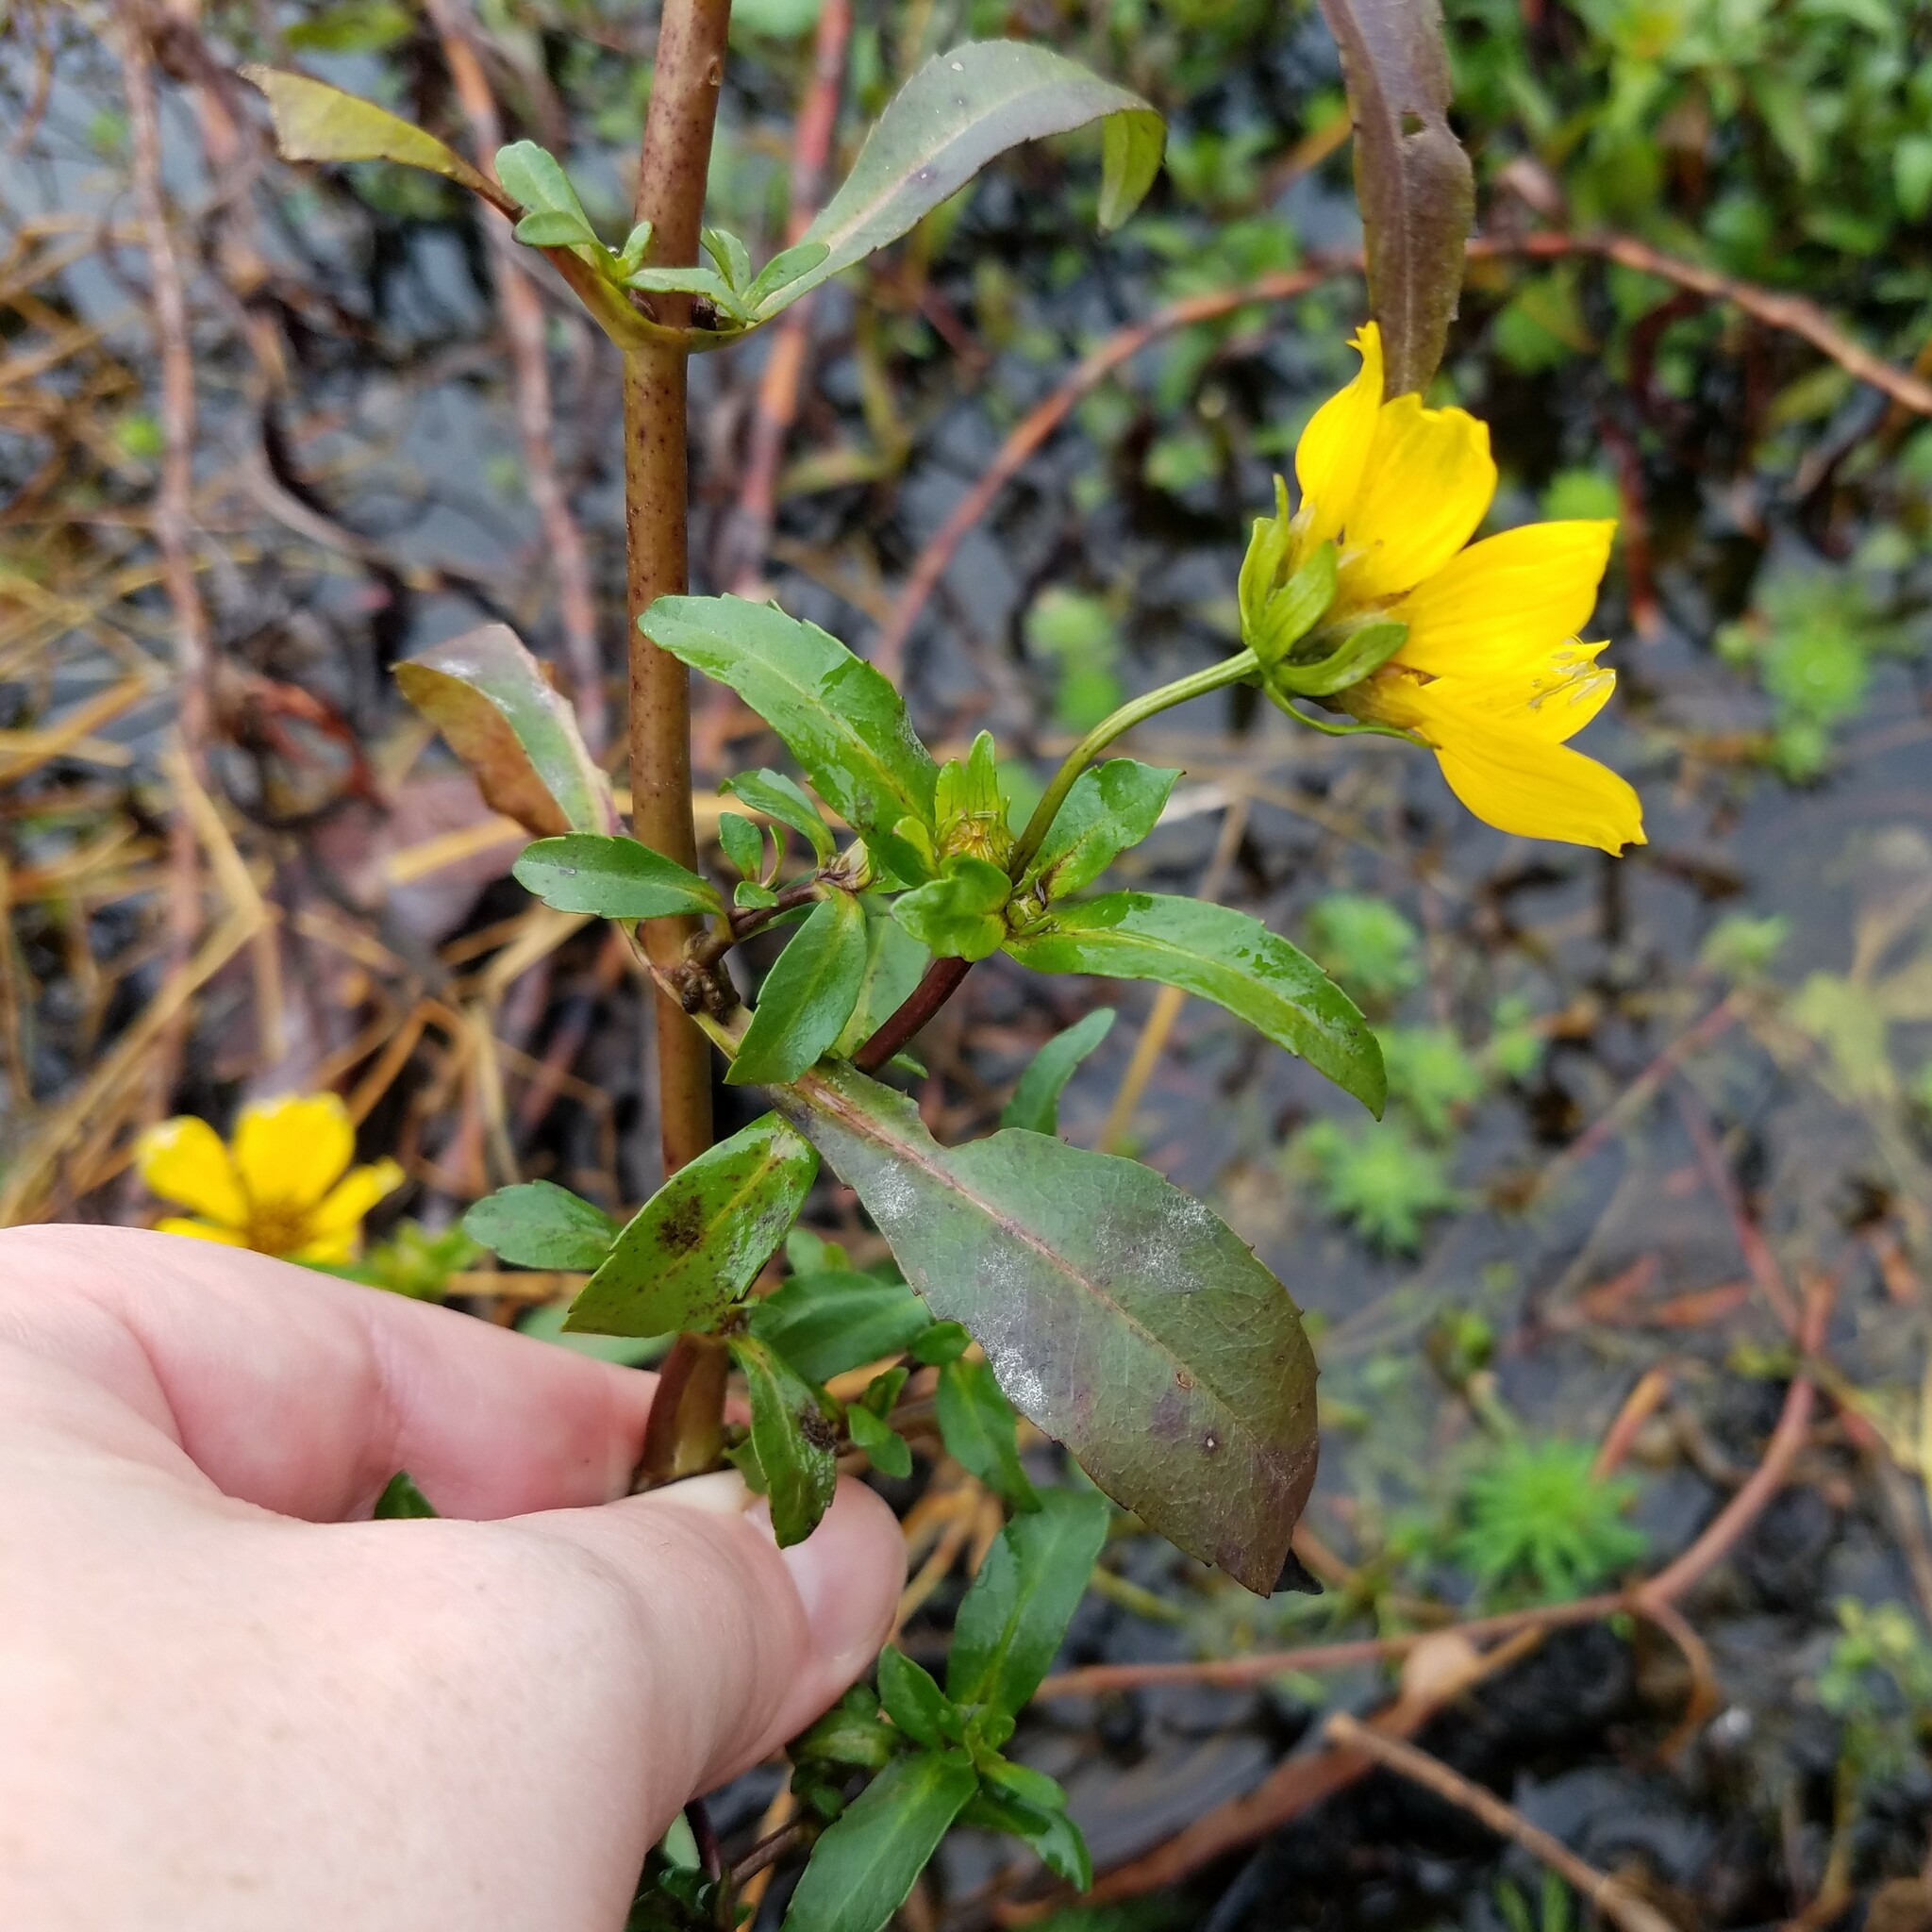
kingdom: Plantae
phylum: Tracheophyta
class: Magnoliopsida
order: Asterales
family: Asteraceae
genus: Bidens
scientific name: Bidens laevis
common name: Larger bur-marigold
